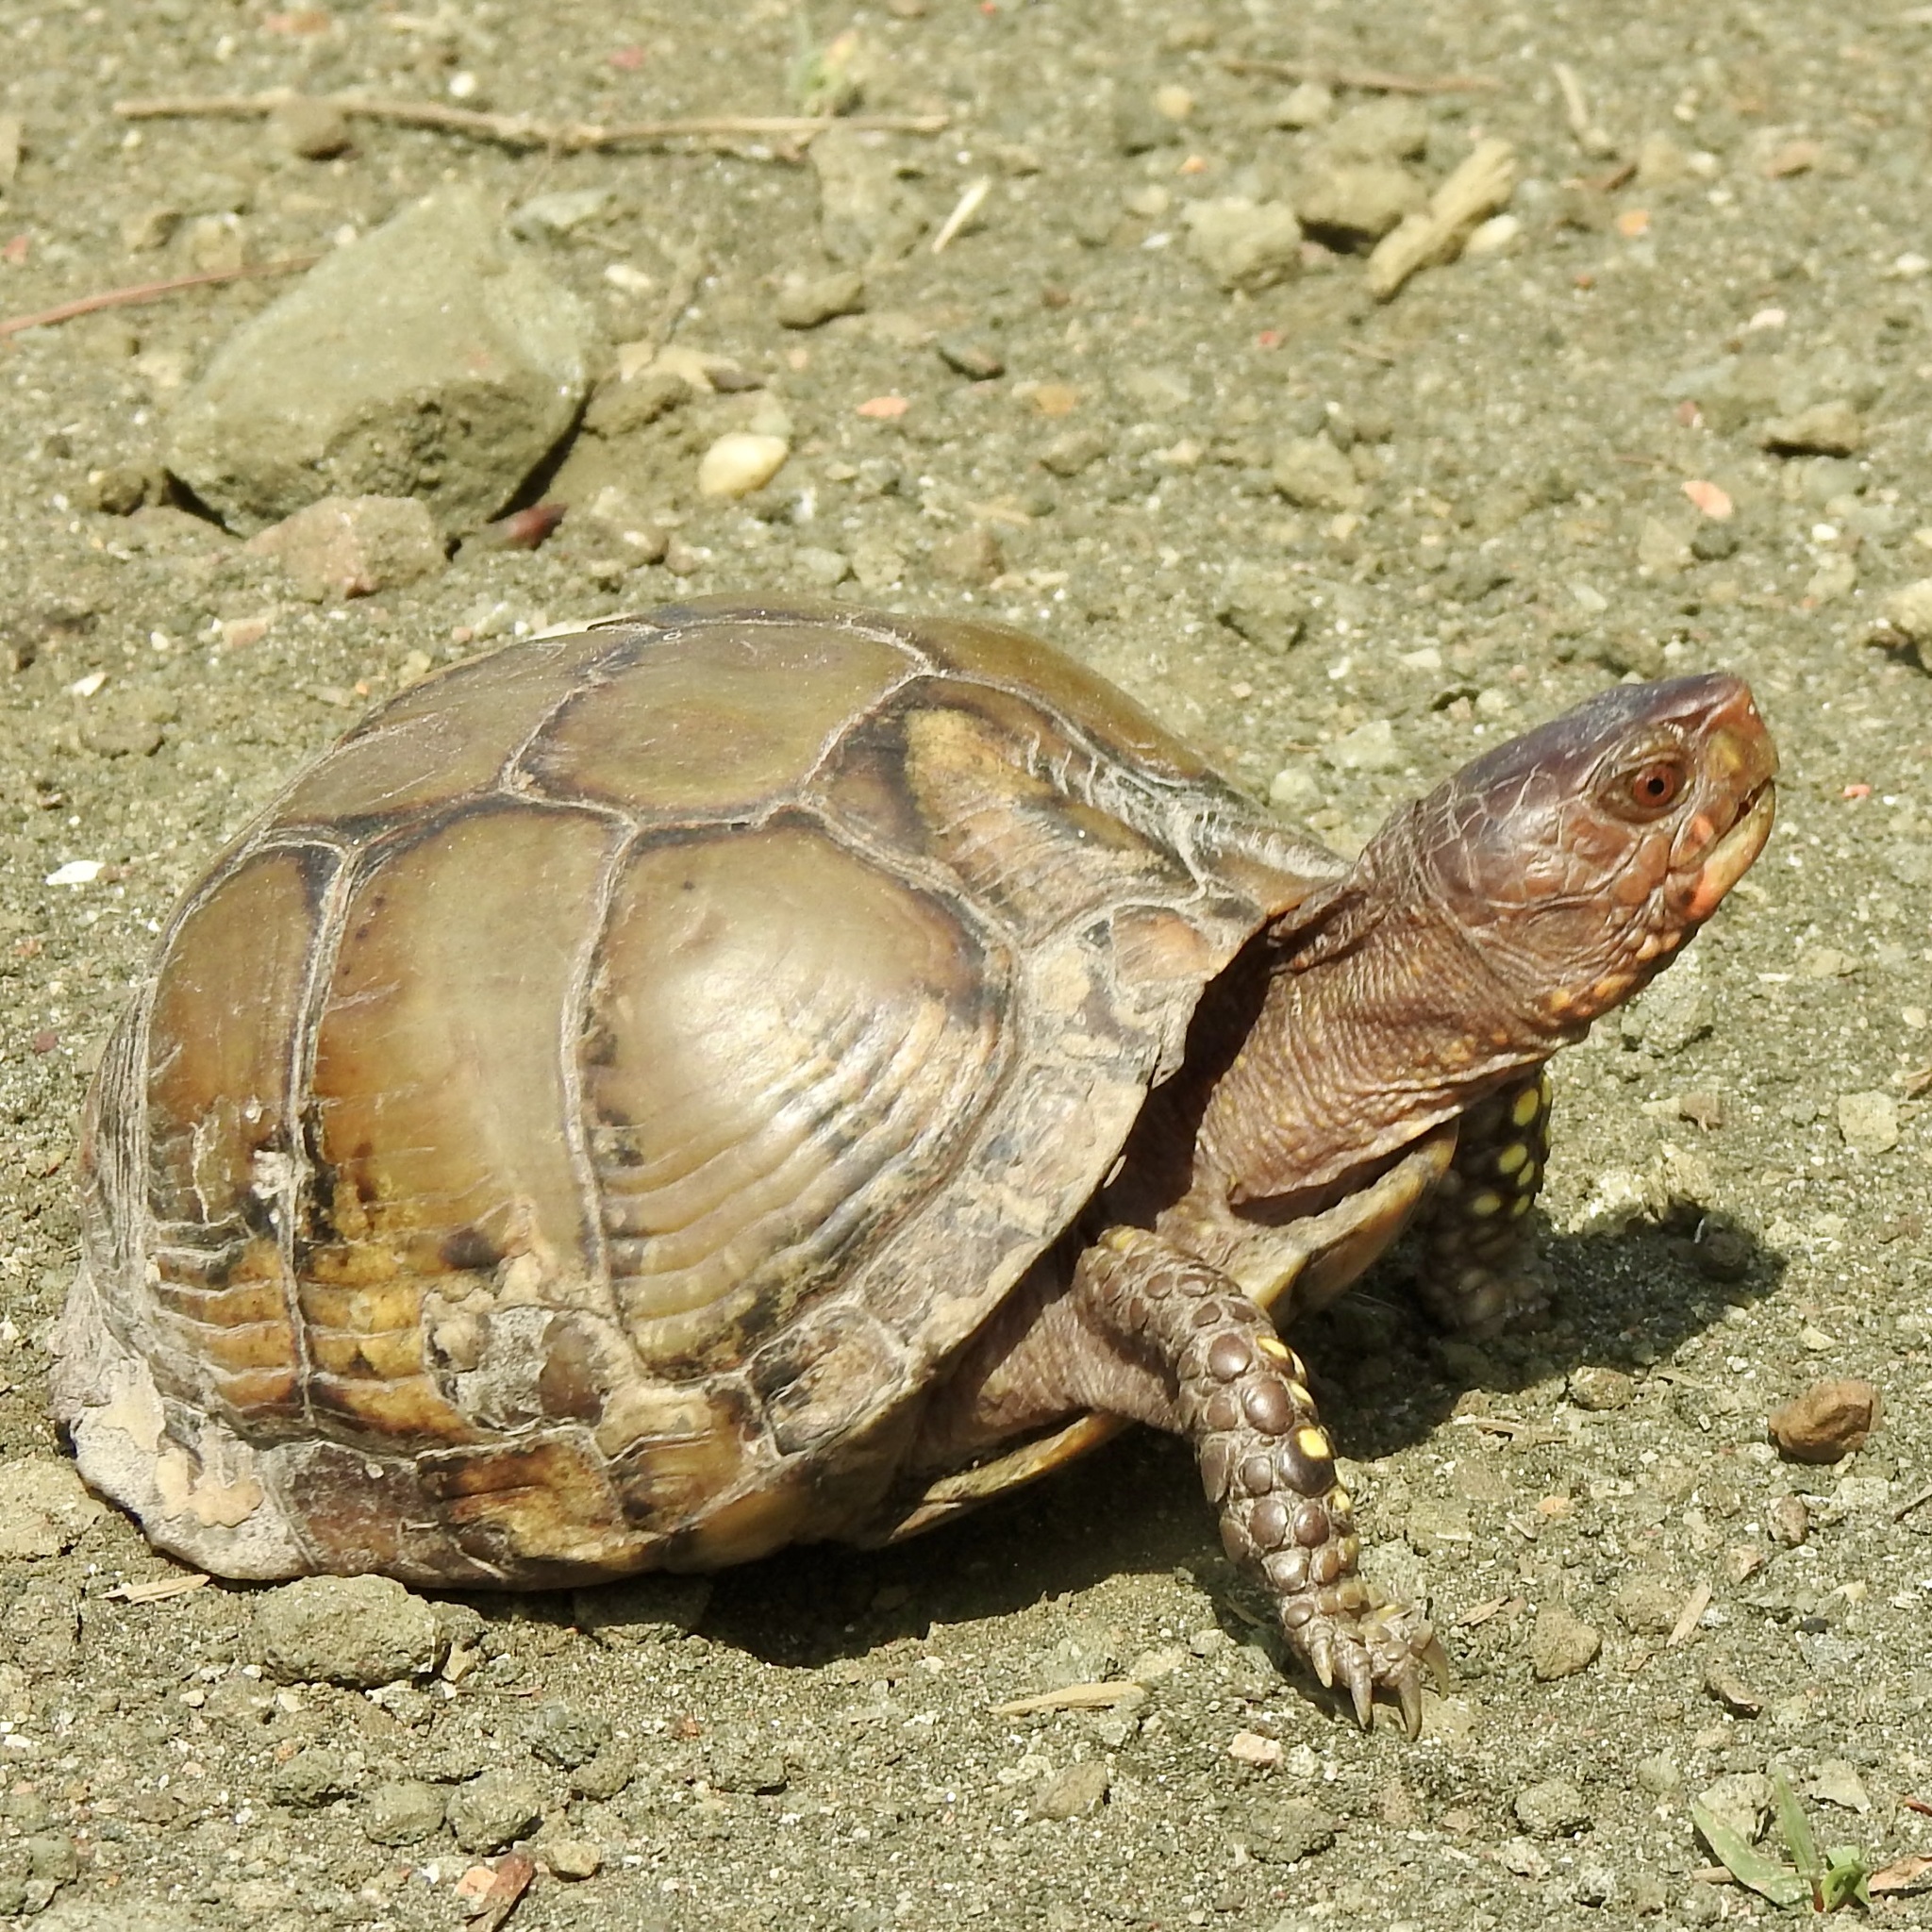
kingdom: Animalia
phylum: Chordata
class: Testudines
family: Emydidae
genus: Terrapene
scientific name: Terrapene carolina
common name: Common box turtle
